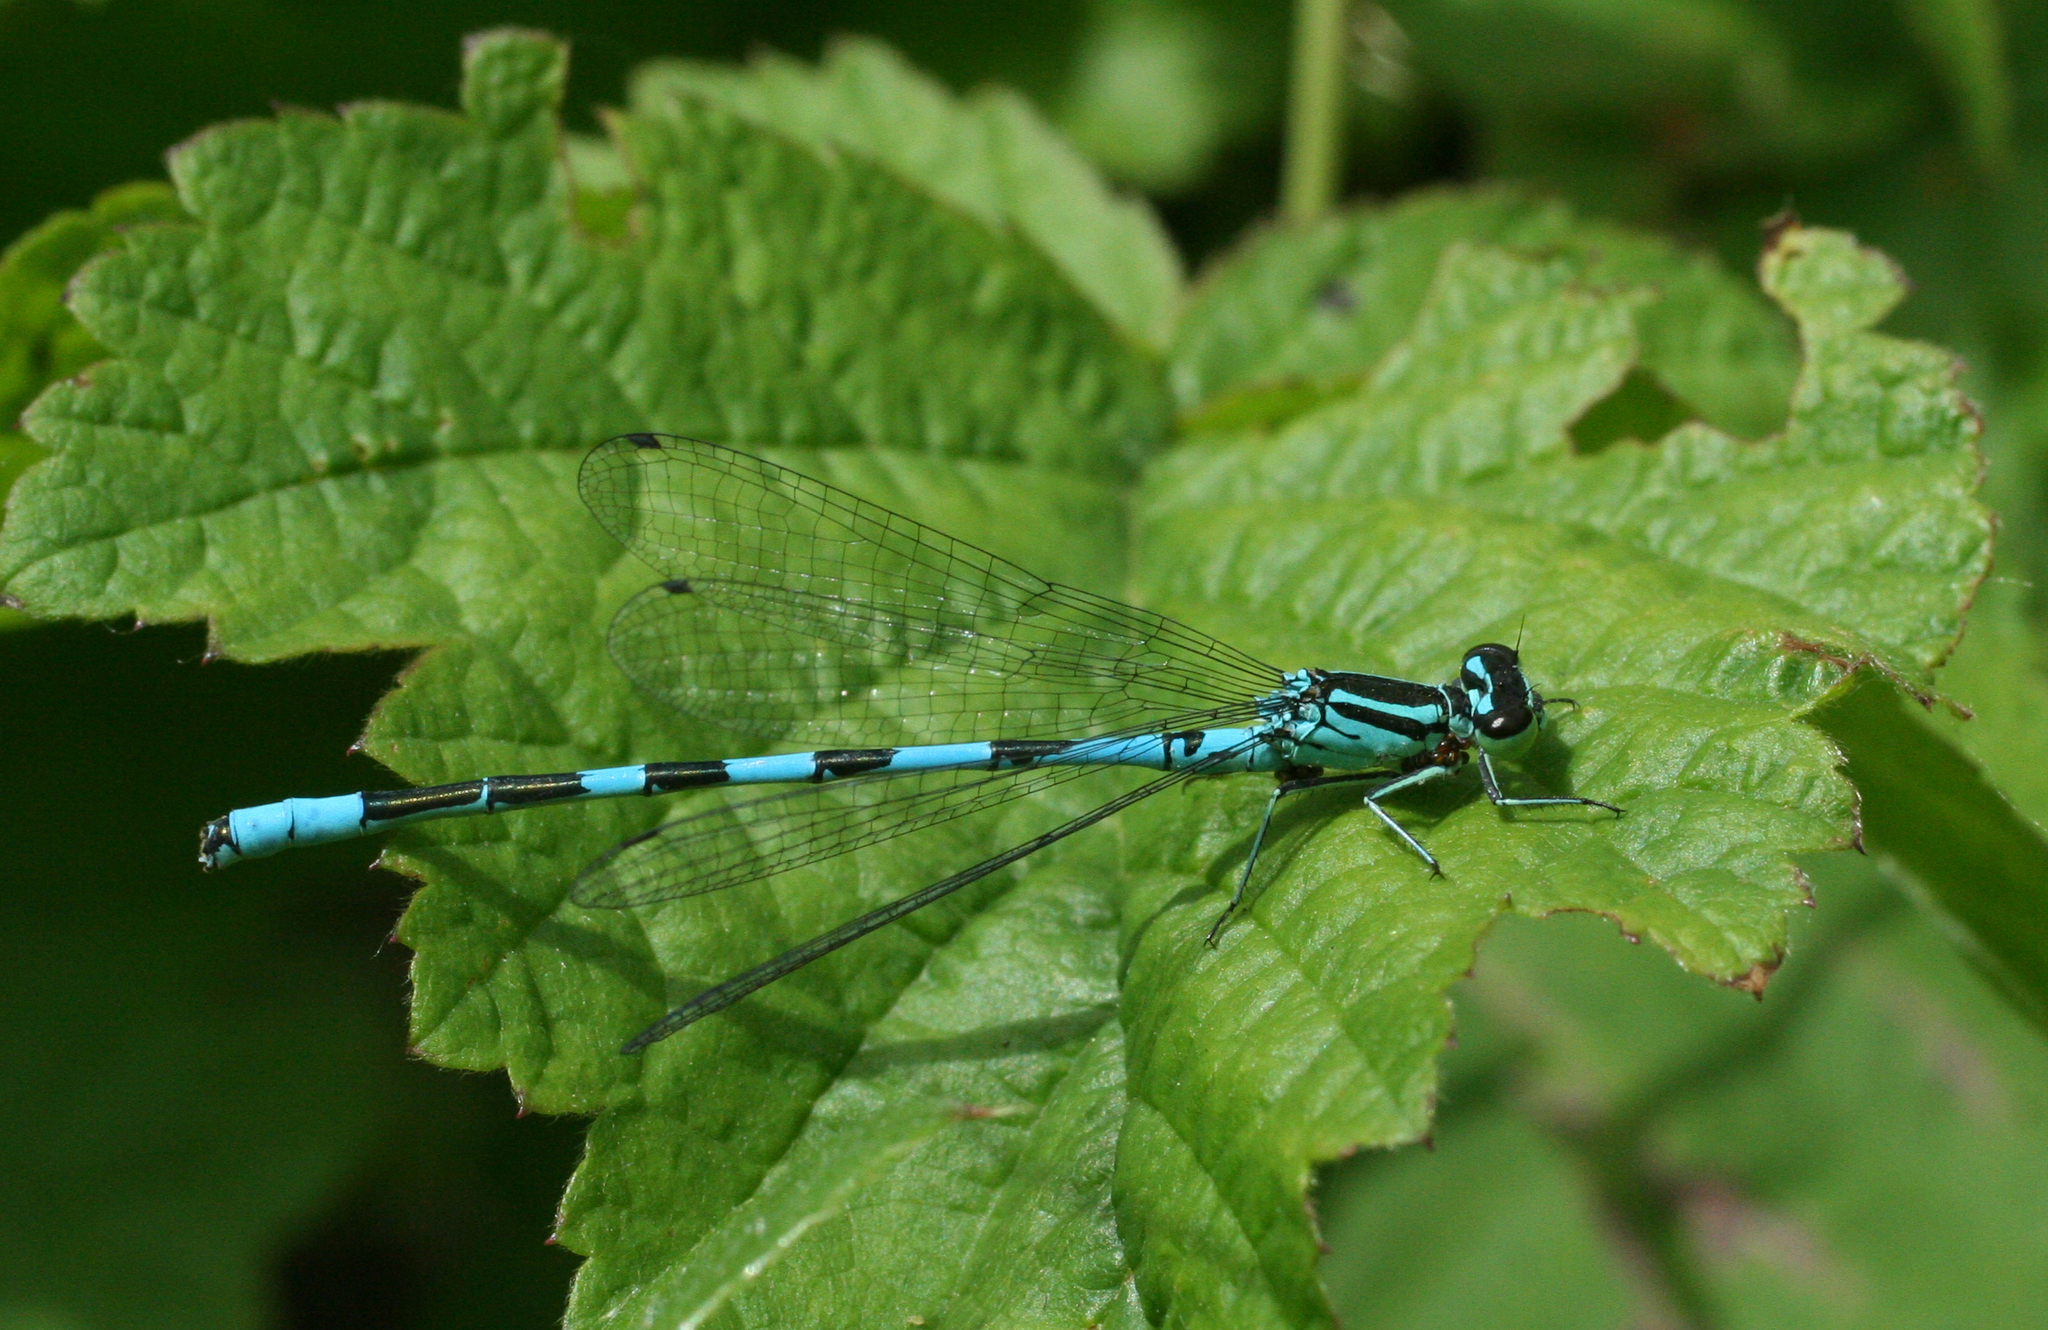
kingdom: Animalia
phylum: Arthropoda
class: Insecta
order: Odonata
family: Coenagrionidae
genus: Coenagrion
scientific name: Coenagrion hastulatum
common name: Spearhead bluet
